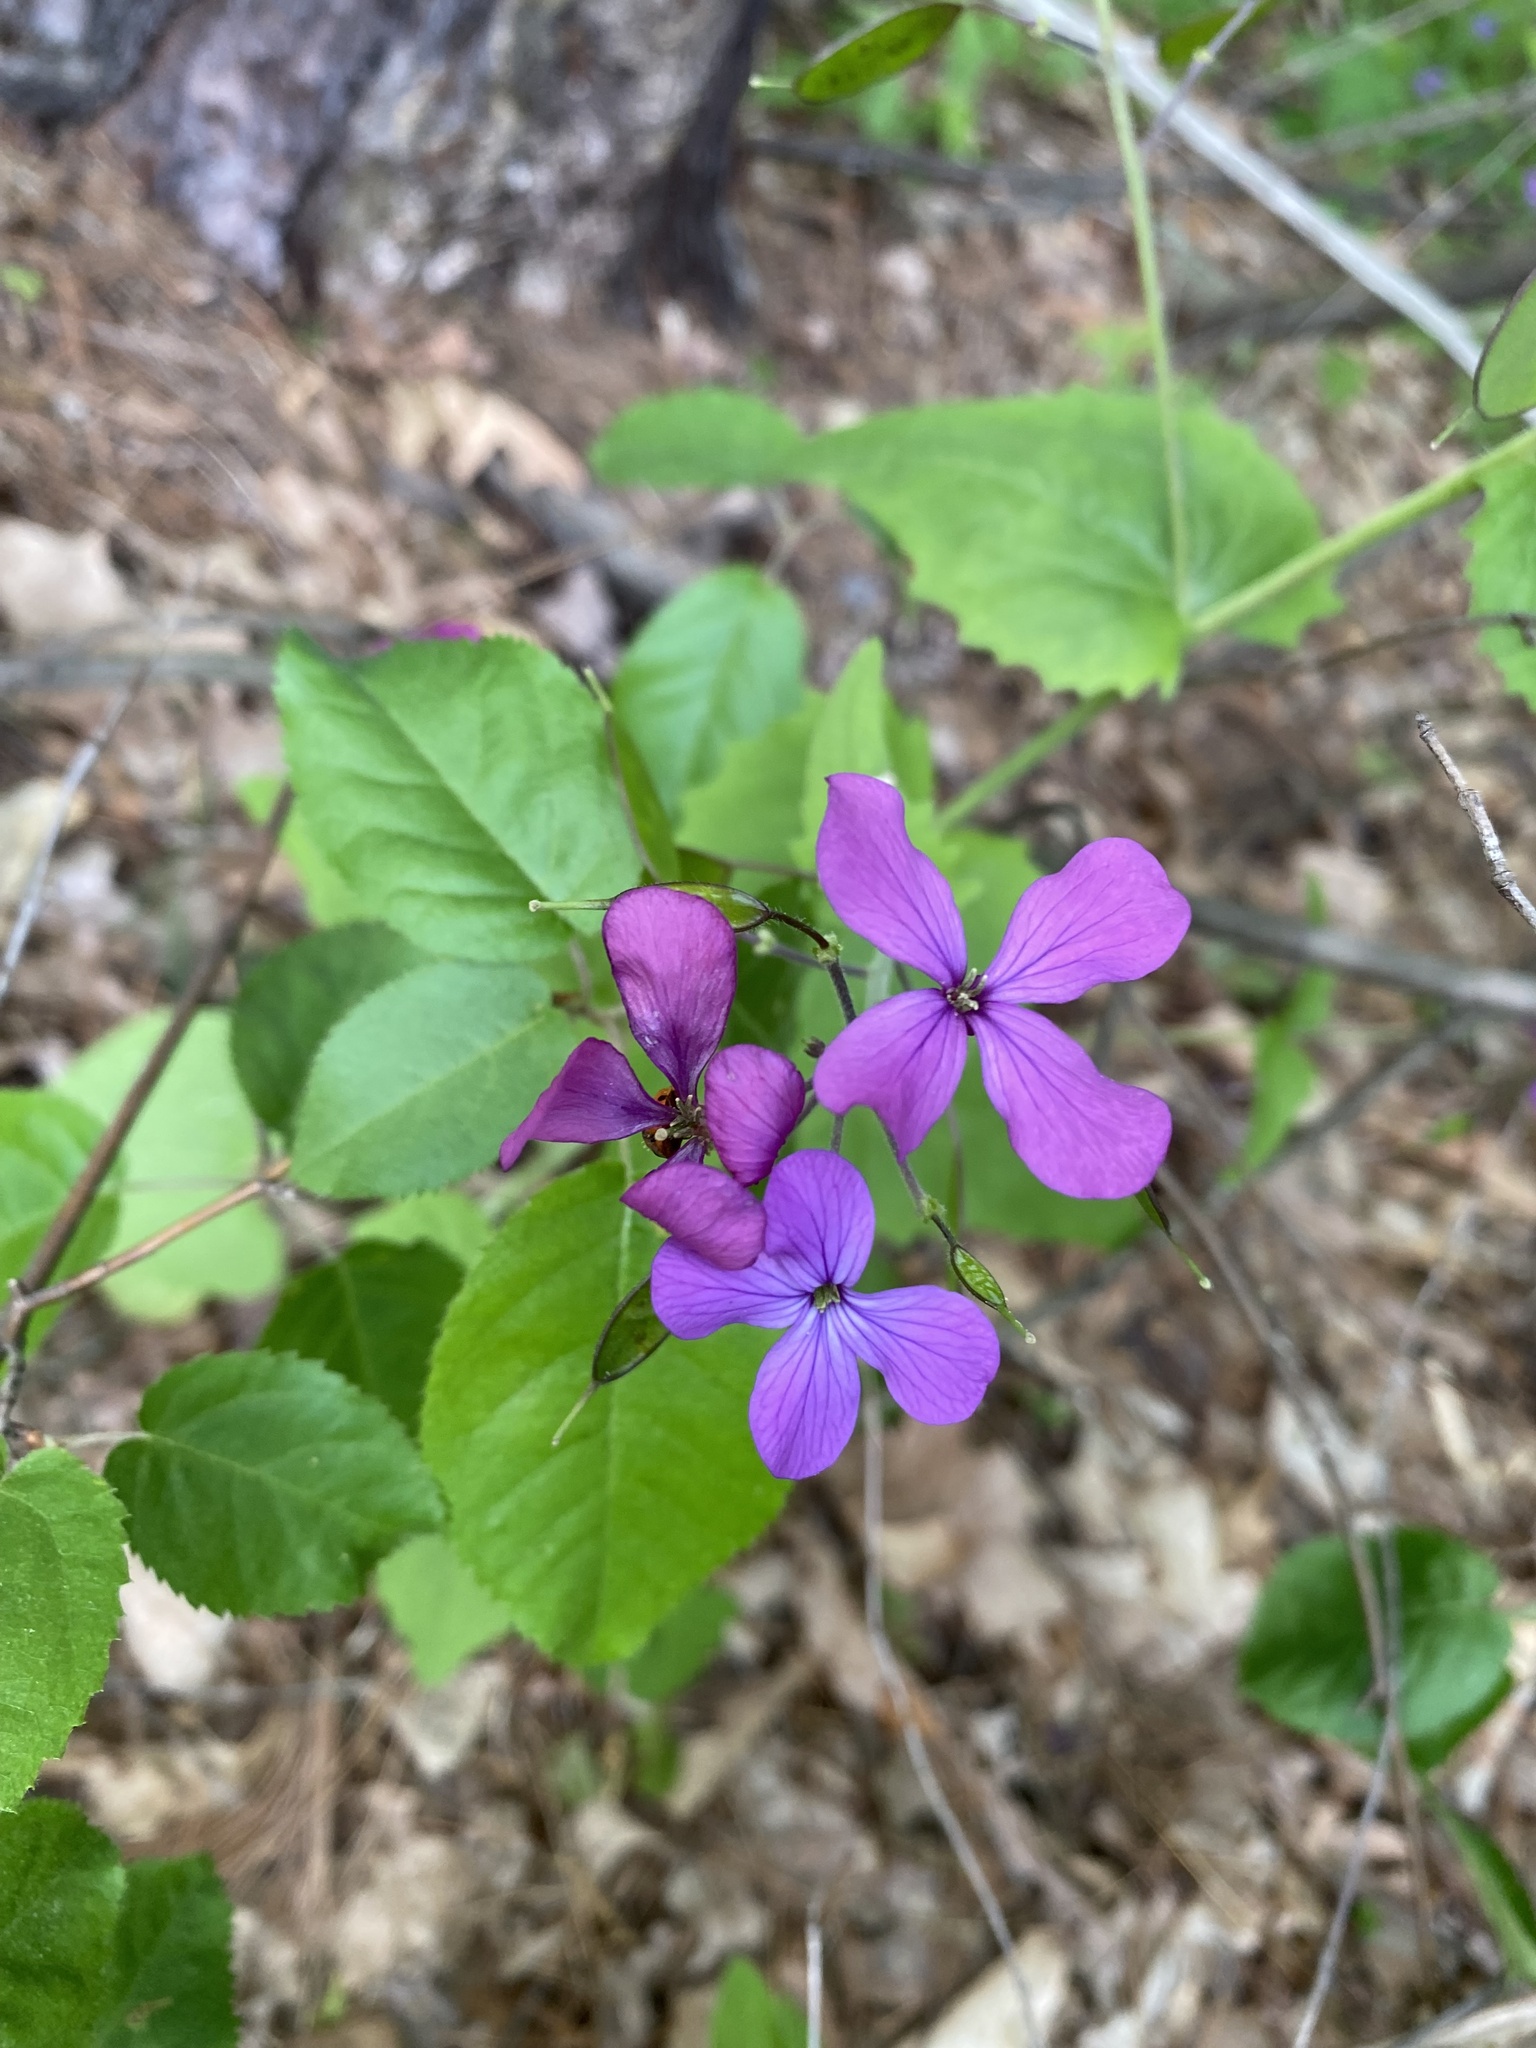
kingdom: Plantae
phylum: Tracheophyta
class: Magnoliopsida
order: Brassicales
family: Brassicaceae
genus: Lunaria
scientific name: Lunaria annua
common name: Honesty
